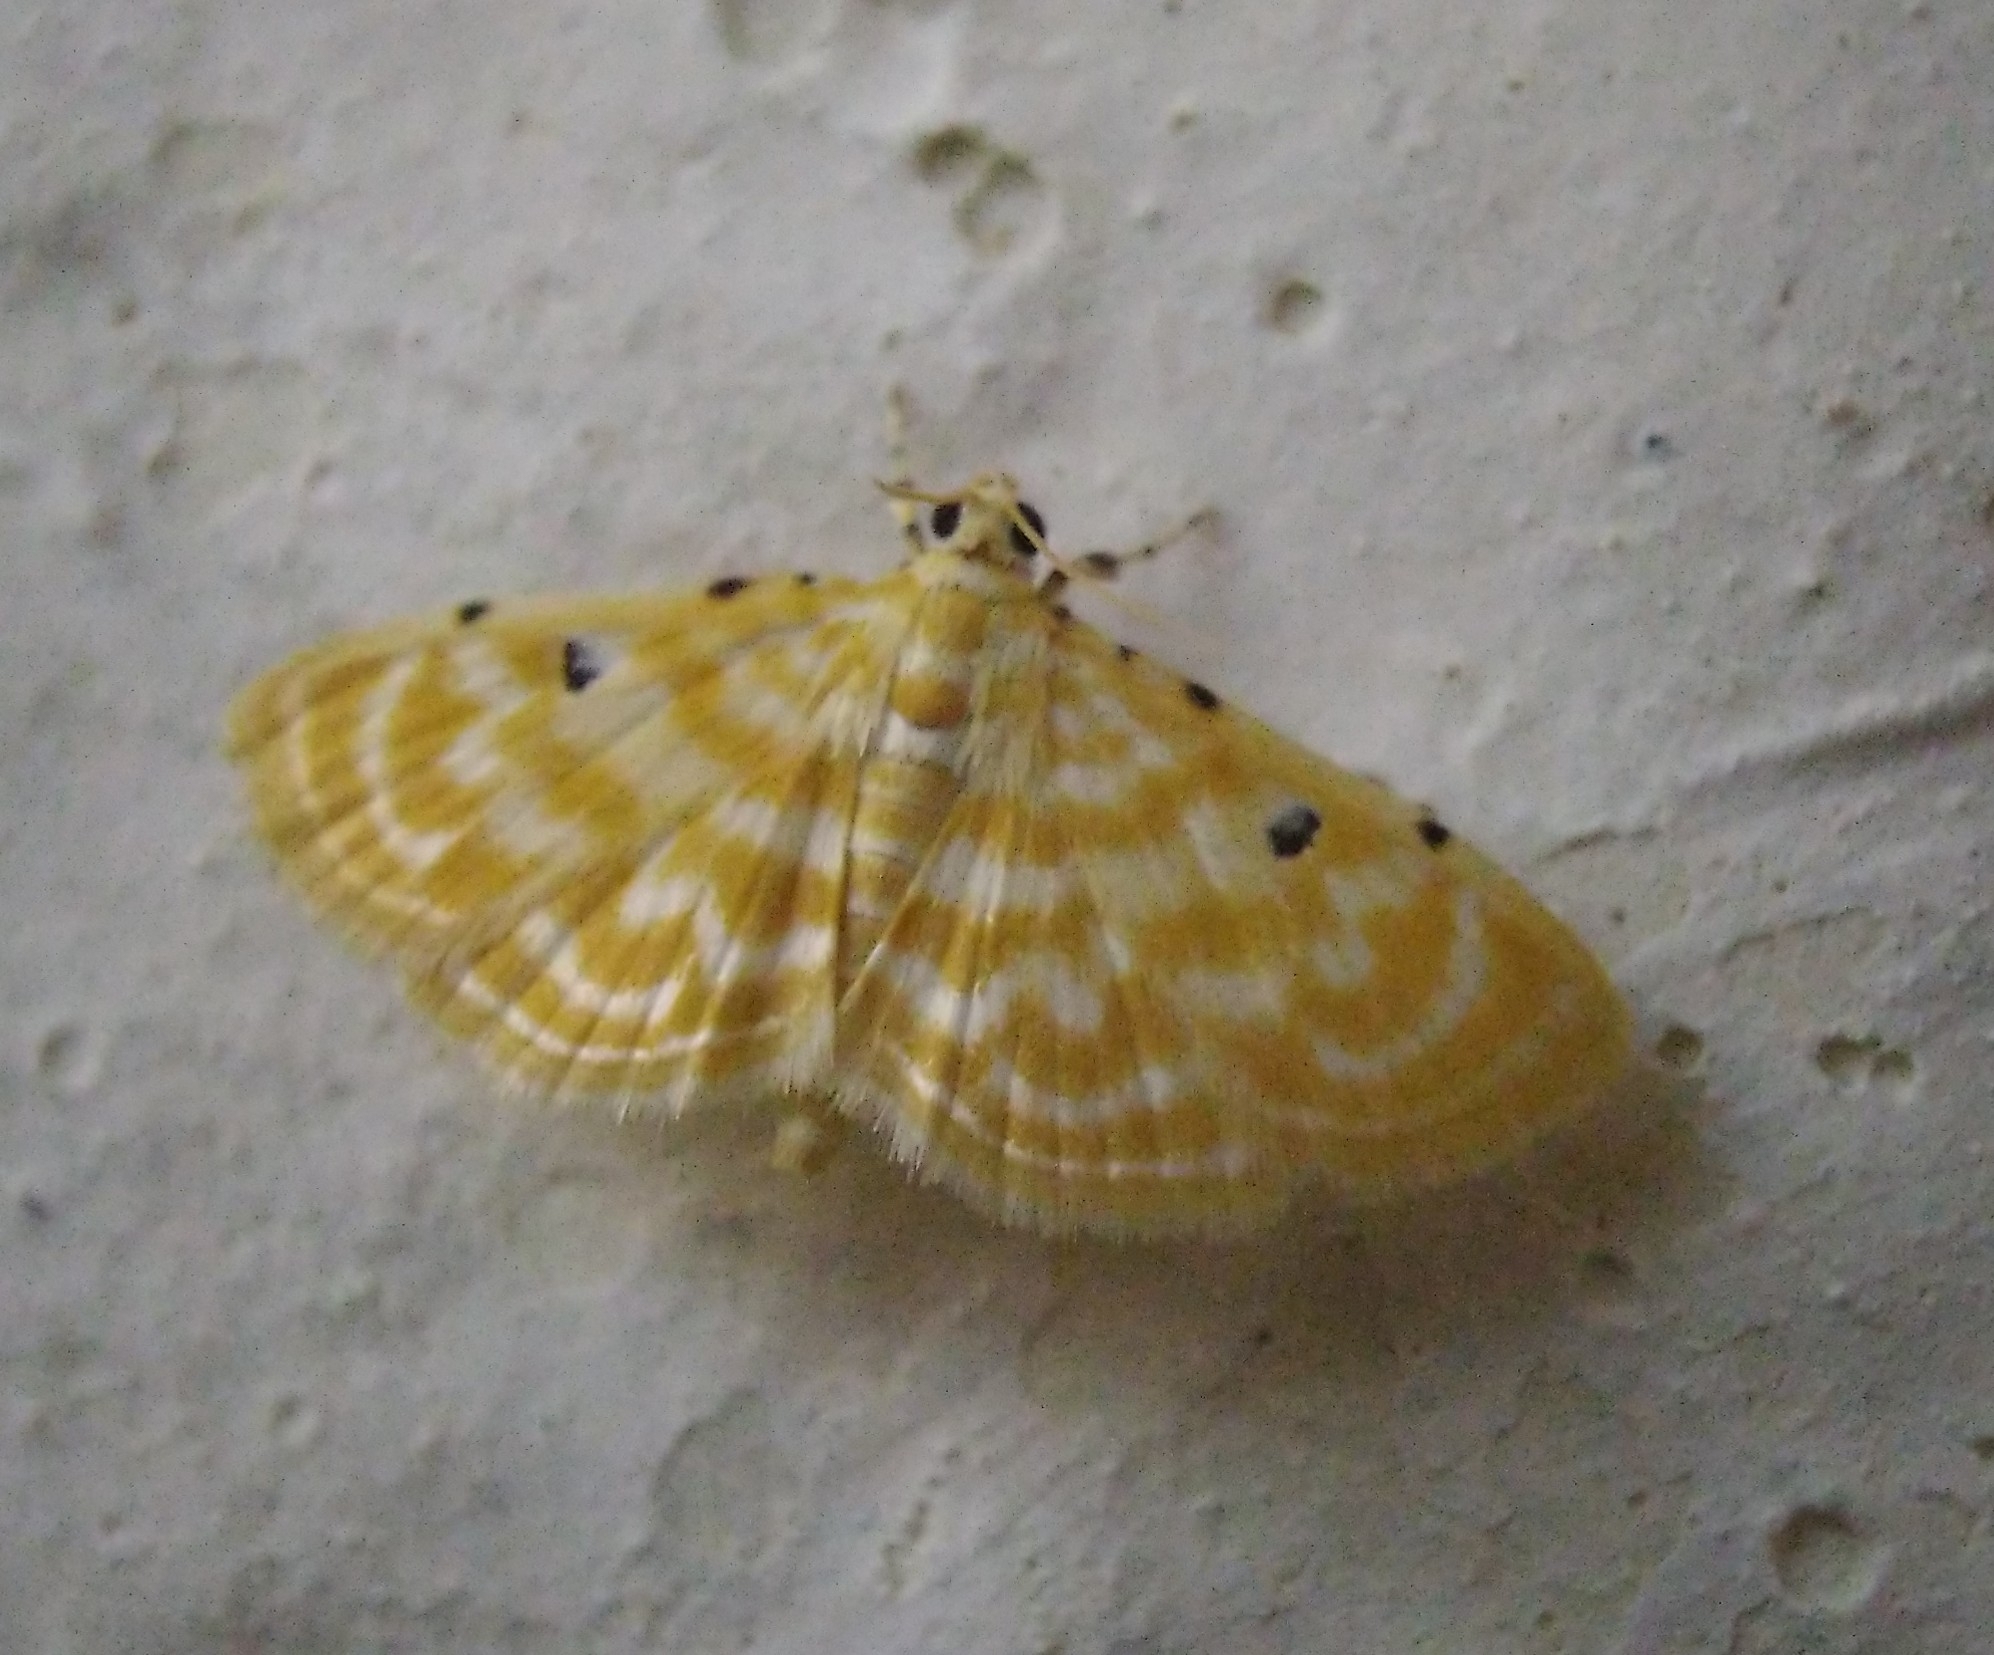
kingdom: Animalia
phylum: Arthropoda
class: Insecta
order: Lepidoptera
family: Crambidae
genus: Notarcha
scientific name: Notarcha aurolinealis
